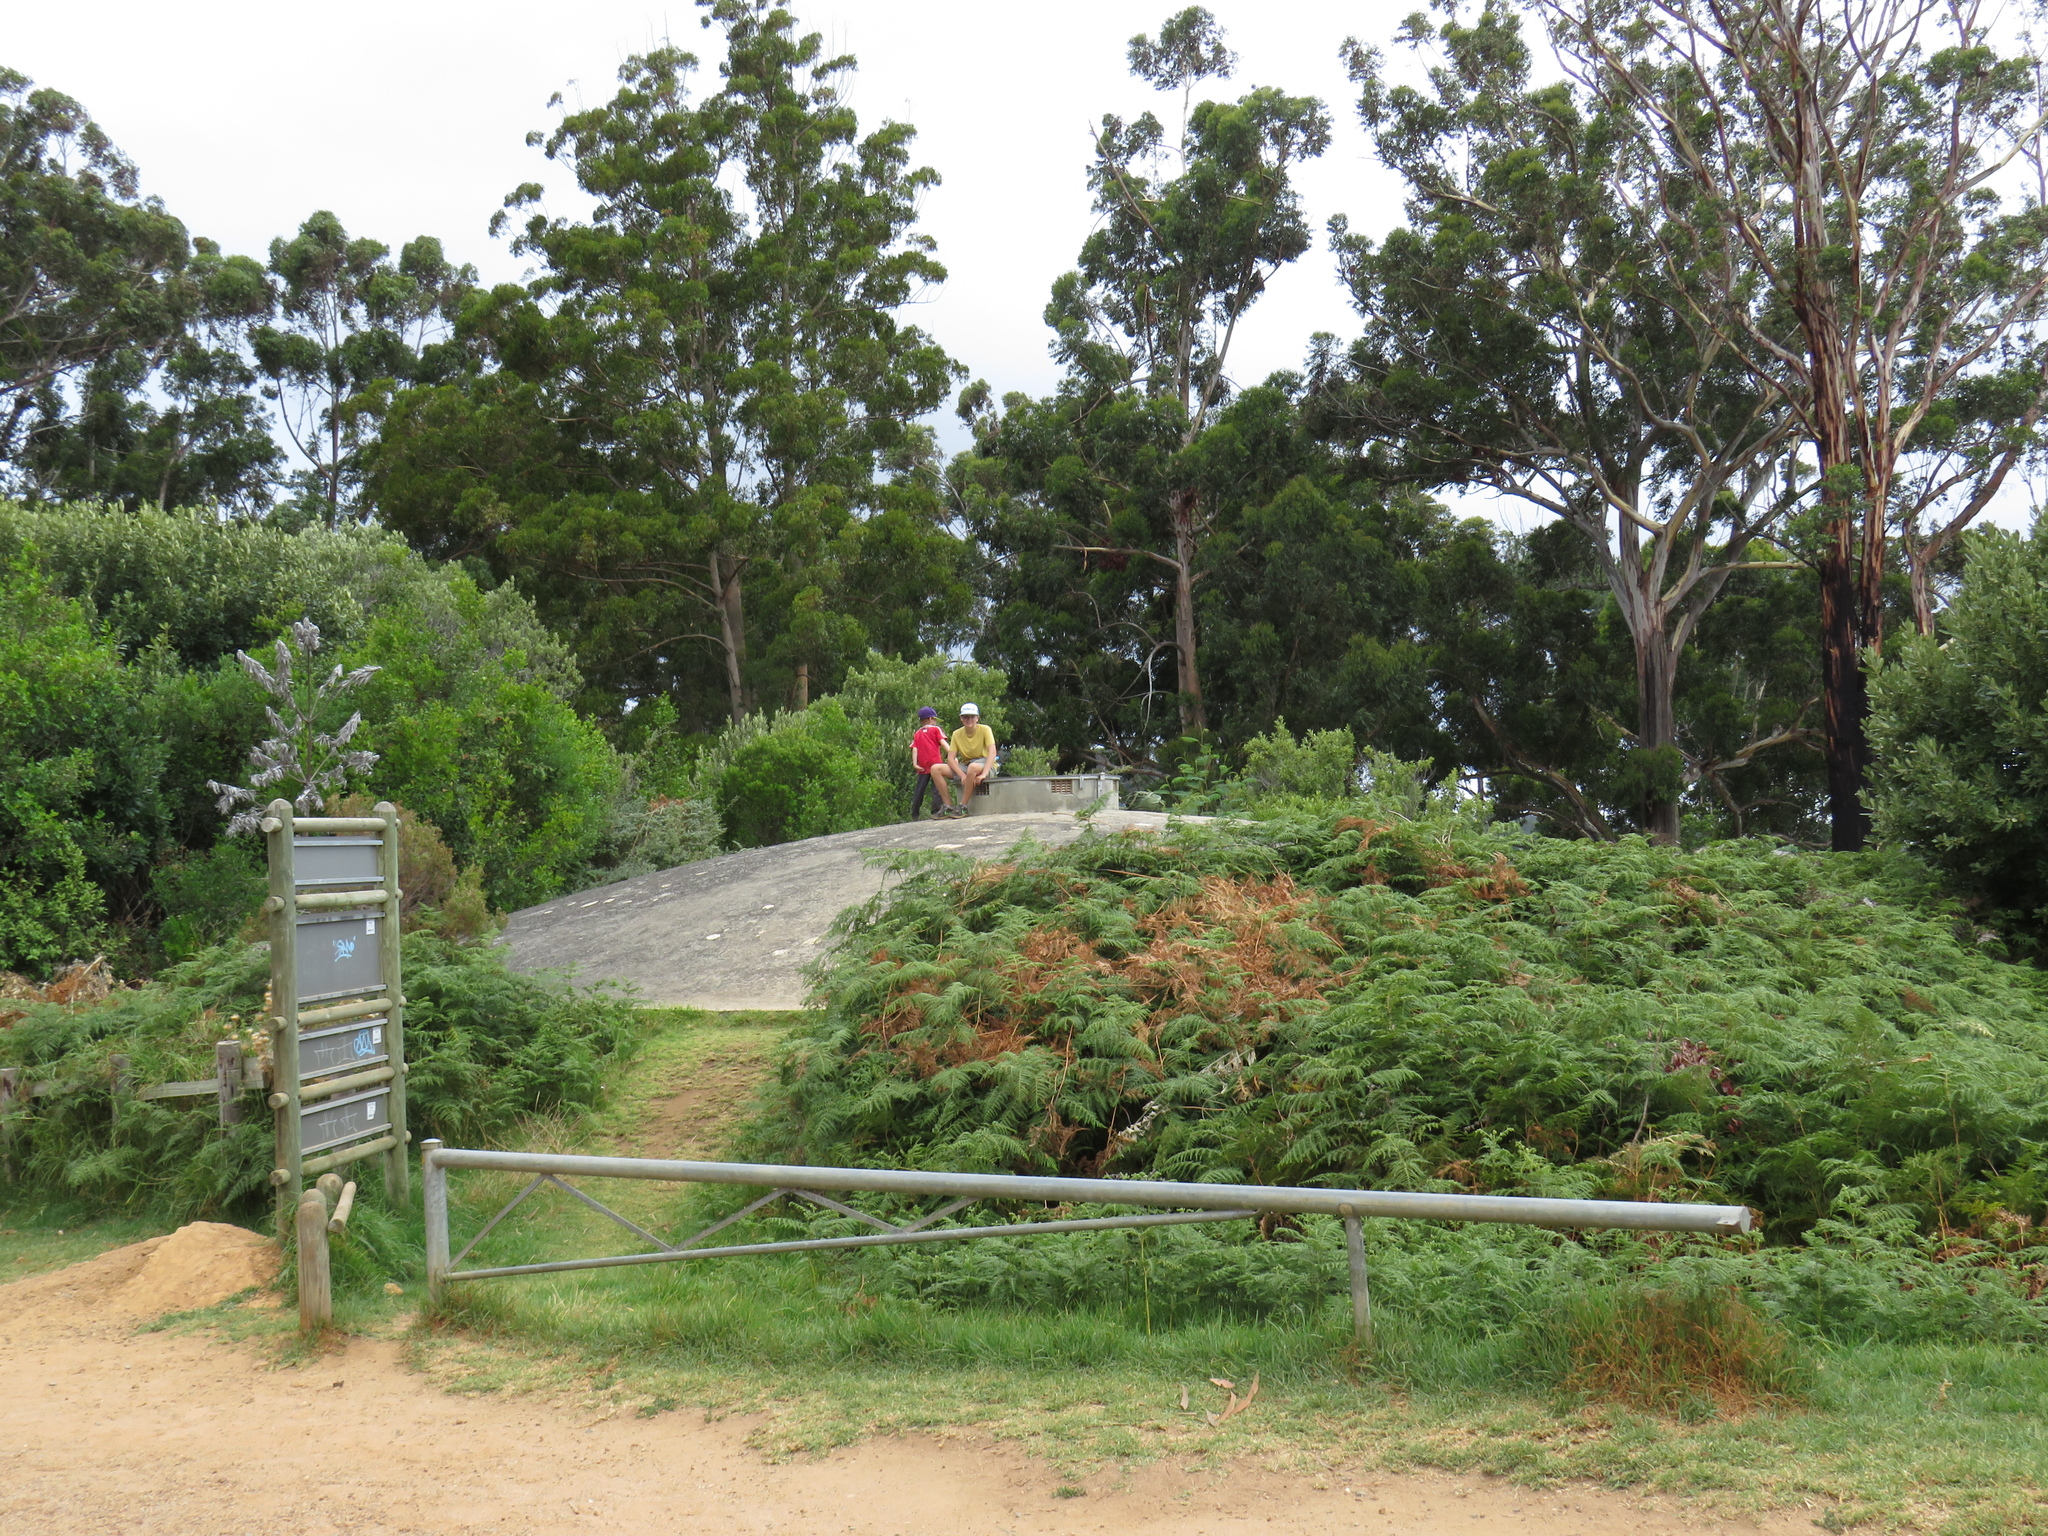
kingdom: Plantae
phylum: Tracheophyta
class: Polypodiopsida
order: Polypodiales
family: Dennstaedtiaceae
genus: Pteridium
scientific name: Pteridium aquilinum
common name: Bracken
